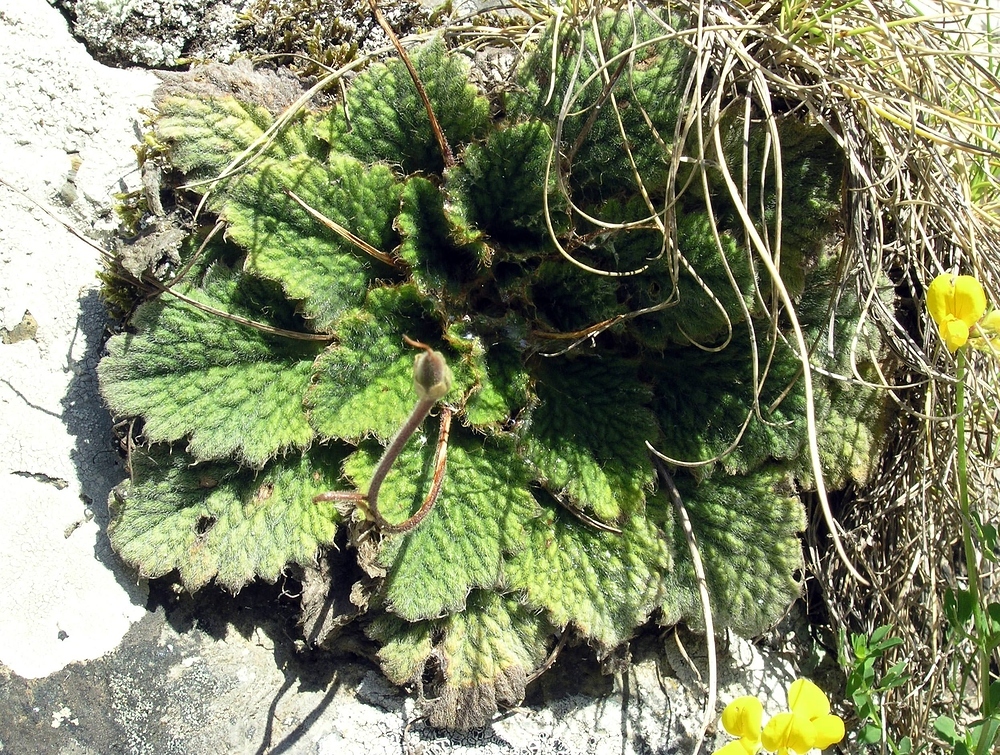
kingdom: Plantae
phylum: Tracheophyta
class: Magnoliopsida
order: Lamiales
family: Gesneriaceae
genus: Ramonda
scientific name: Ramonda myconi
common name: Pyrenean-violet
